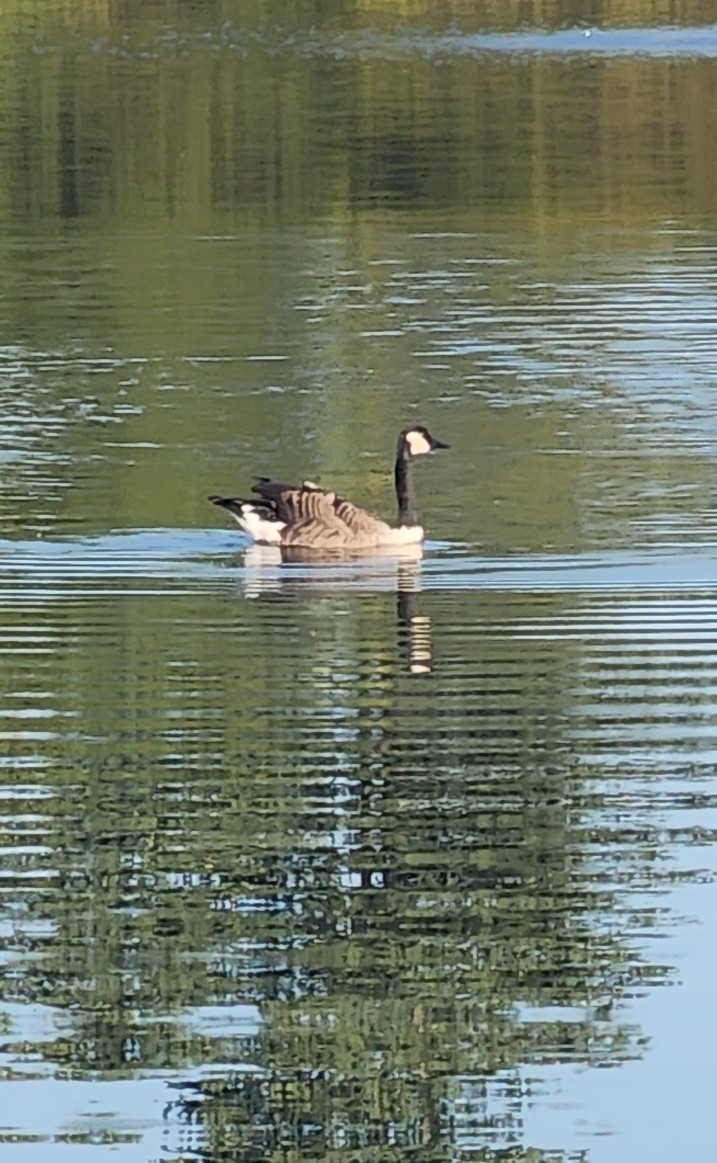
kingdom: Animalia
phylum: Chordata
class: Aves
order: Anseriformes
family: Anatidae
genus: Branta
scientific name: Branta canadensis
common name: Canada goose
